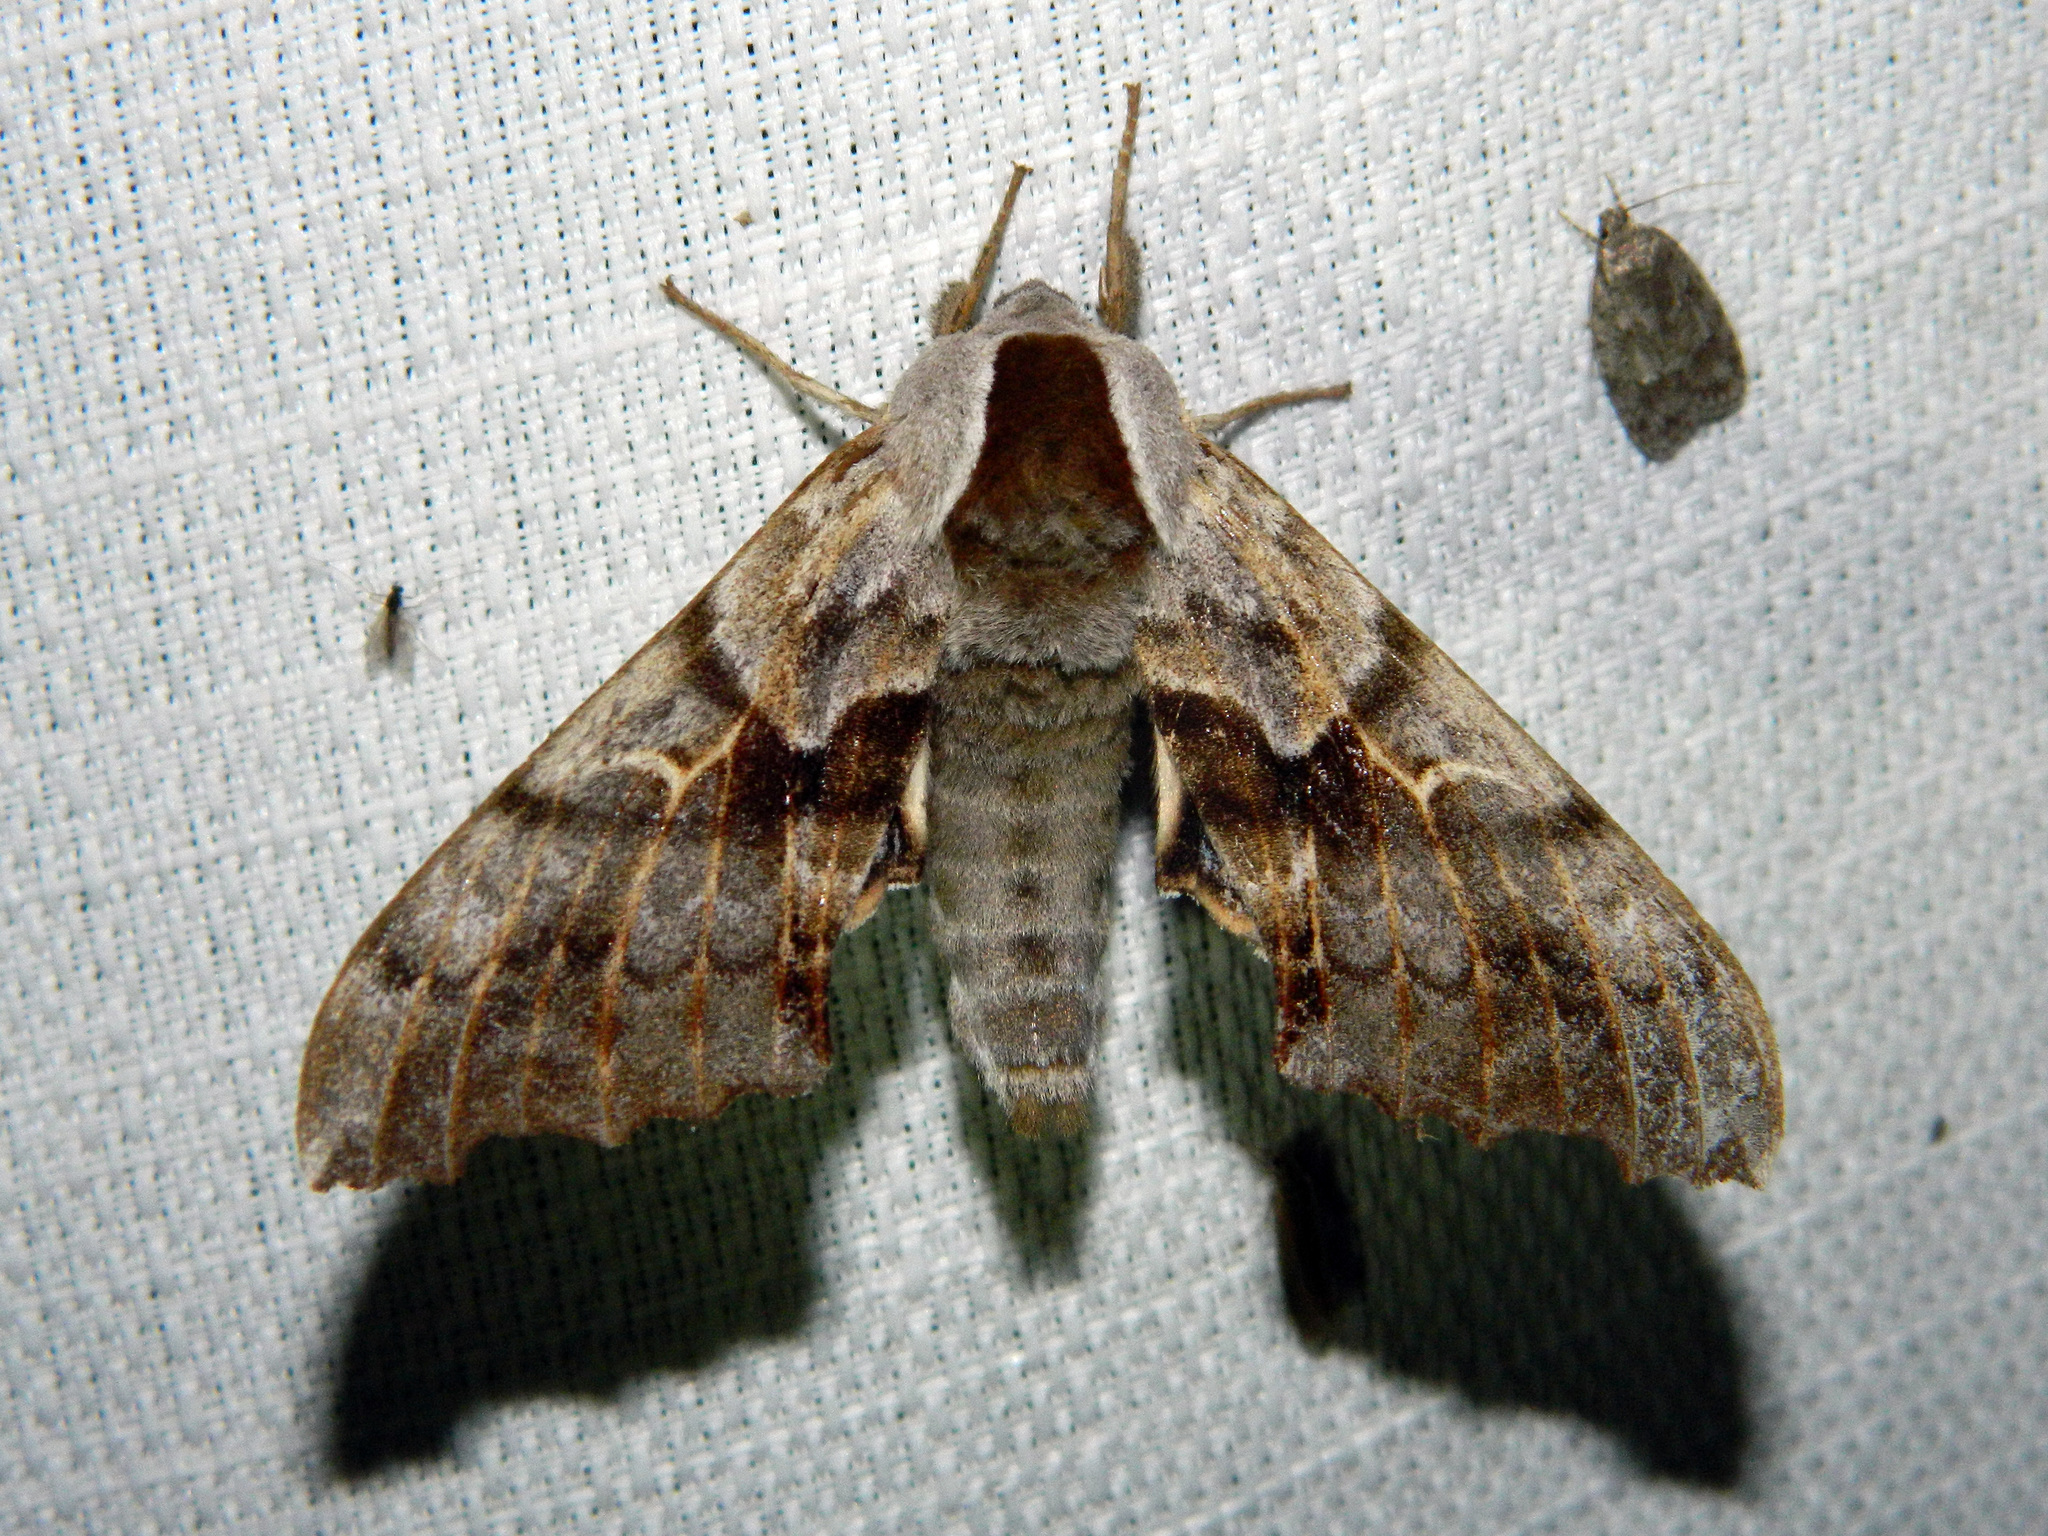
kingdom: Animalia
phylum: Arthropoda
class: Insecta
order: Lepidoptera
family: Sphingidae
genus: Smerinthus
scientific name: Smerinthus cerisyi
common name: Cerisy's sphinx moth
